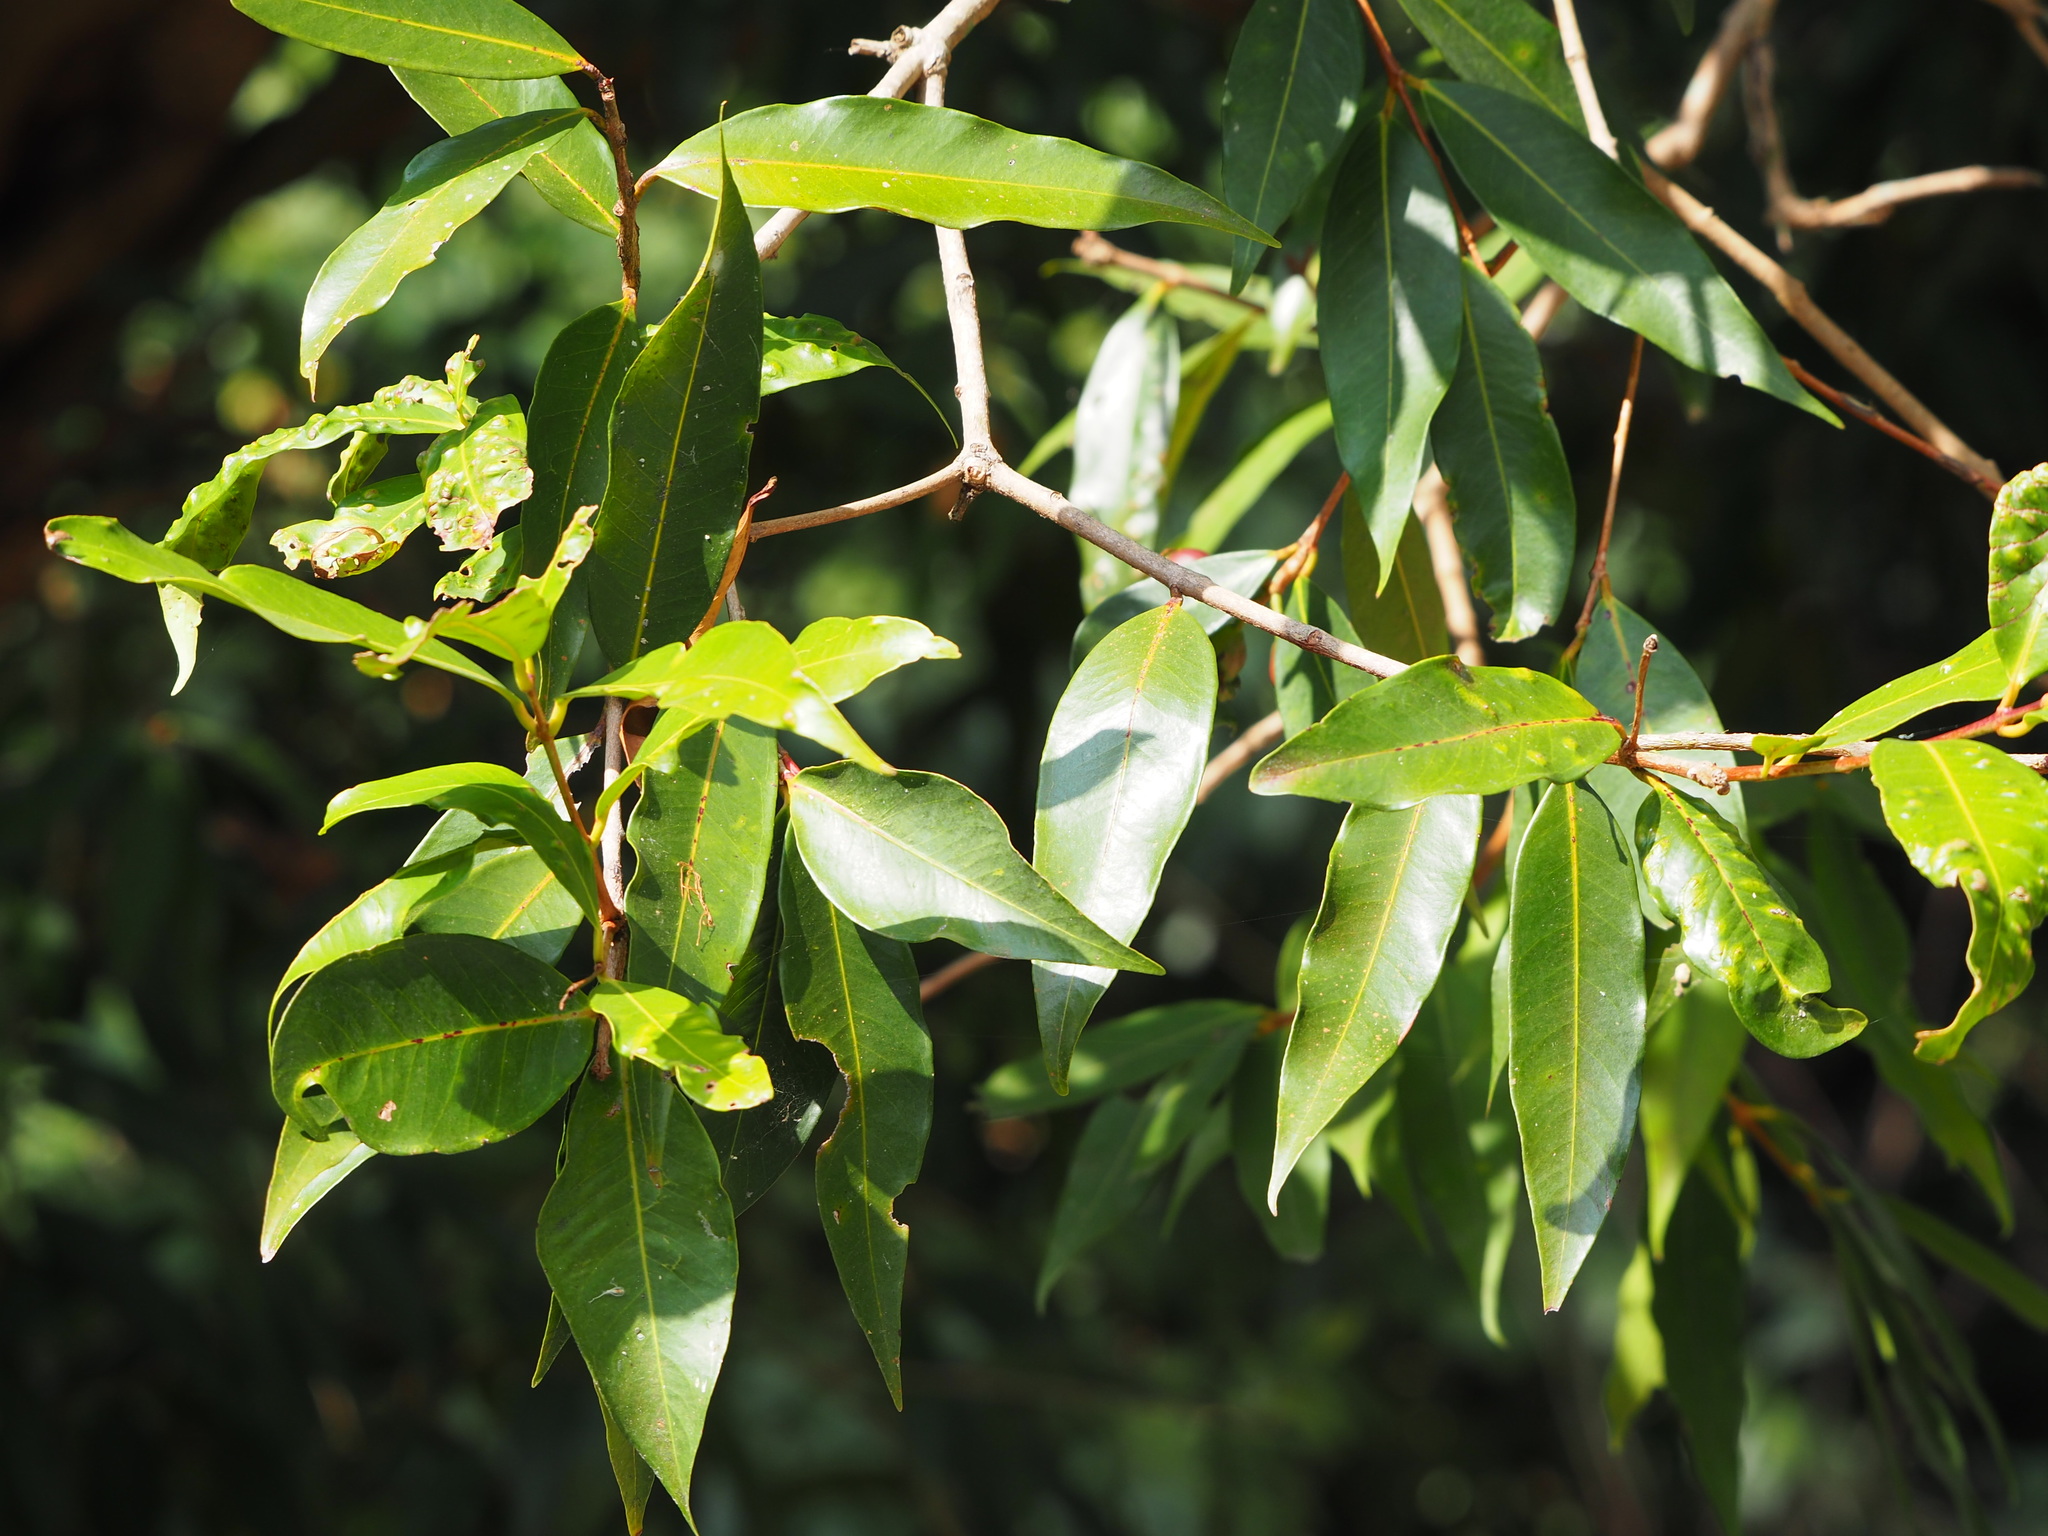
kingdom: Plantae
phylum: Tracheophyta
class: Magnoliopsida
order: Myrtales
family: Myrtaceae
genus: Syzygium
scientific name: Syzygium jambos
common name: Malabar plum
